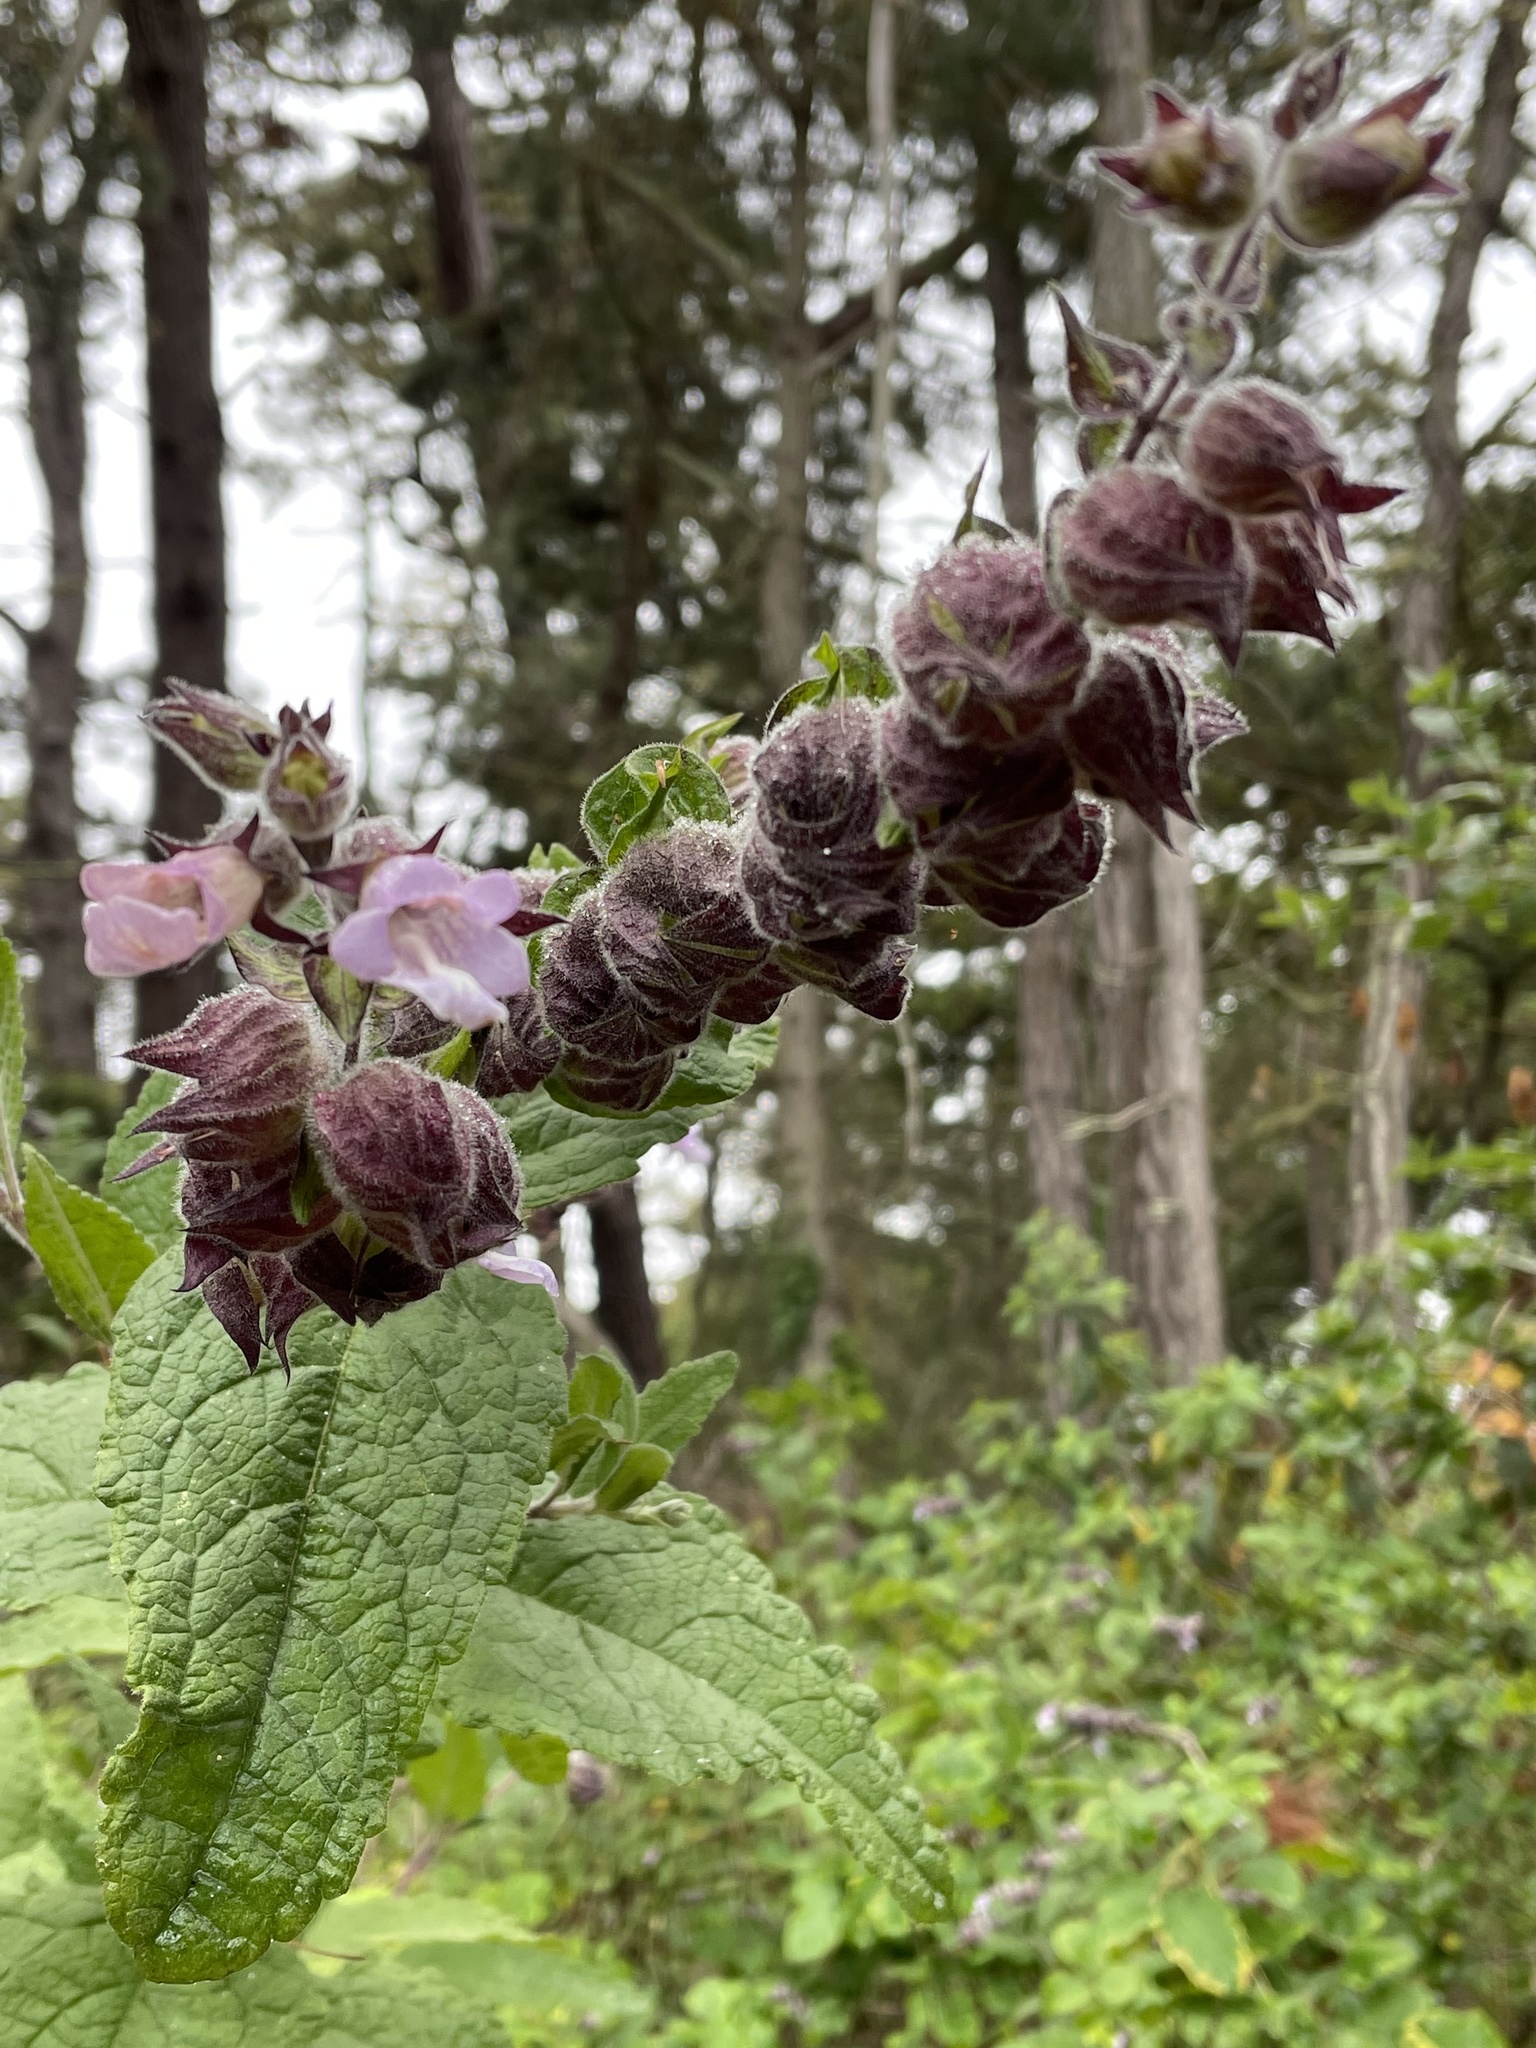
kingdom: Plantae
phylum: Tracheophyta
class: Magnoliopsida
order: Lamiales
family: Lamiaceae
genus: Lepechinia
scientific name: Lepechinia calycina
